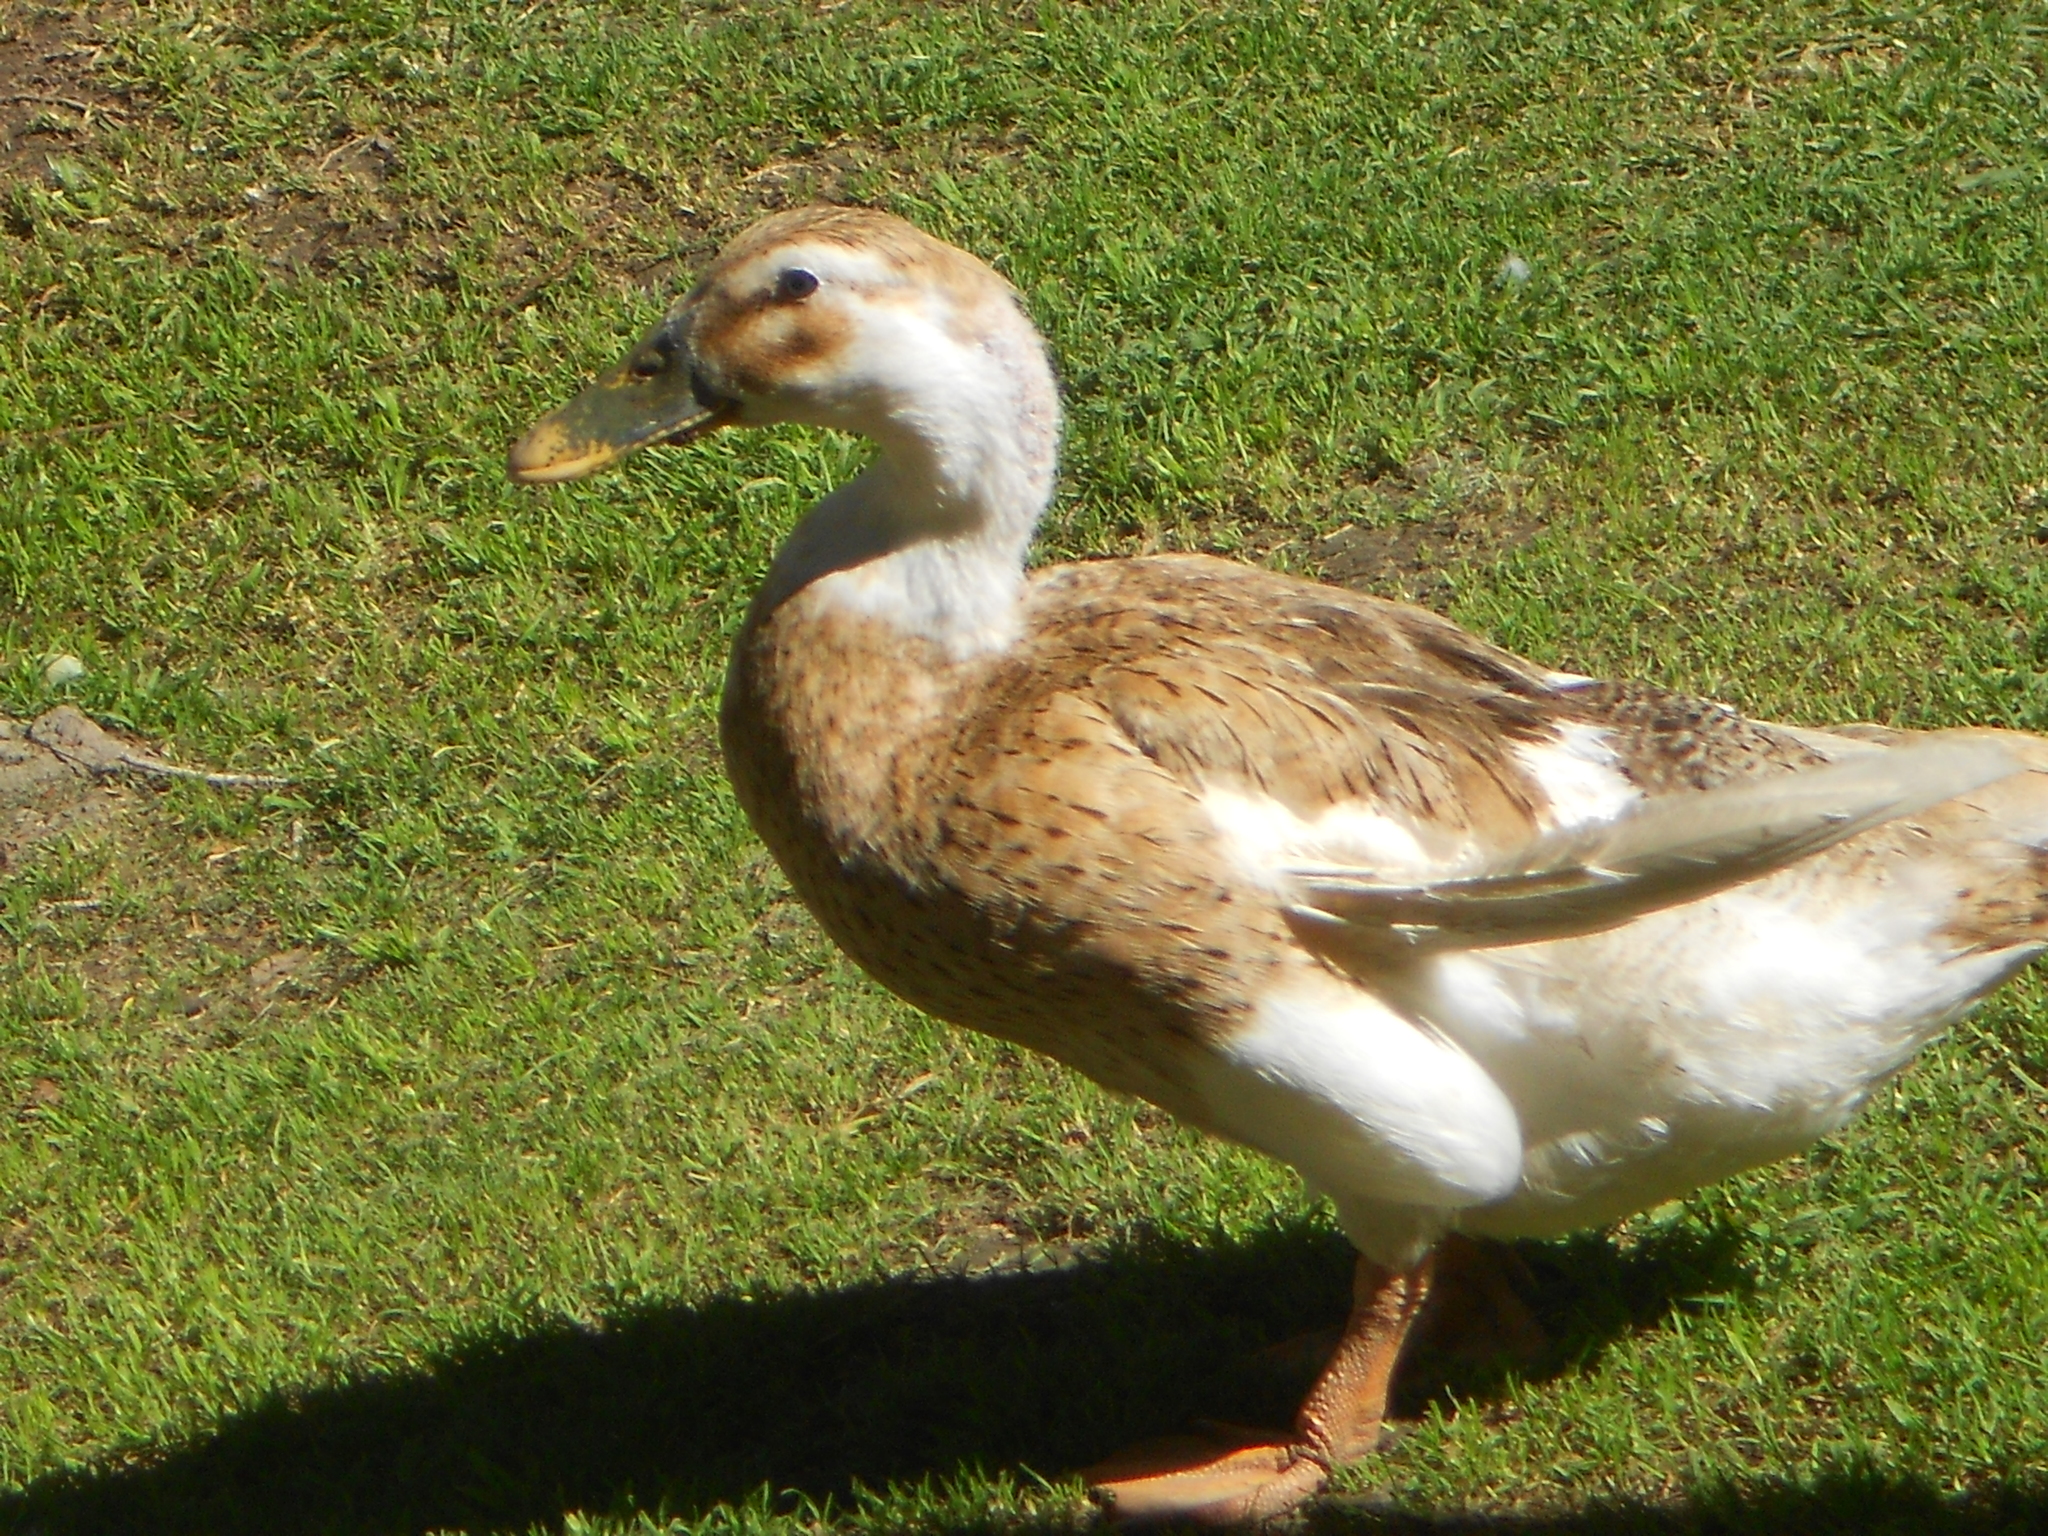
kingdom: Animalia
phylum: Chordata
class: Aves
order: Anseriformes
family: Anatidae
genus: Anas
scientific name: Anas platyrhynchos
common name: Mallard
